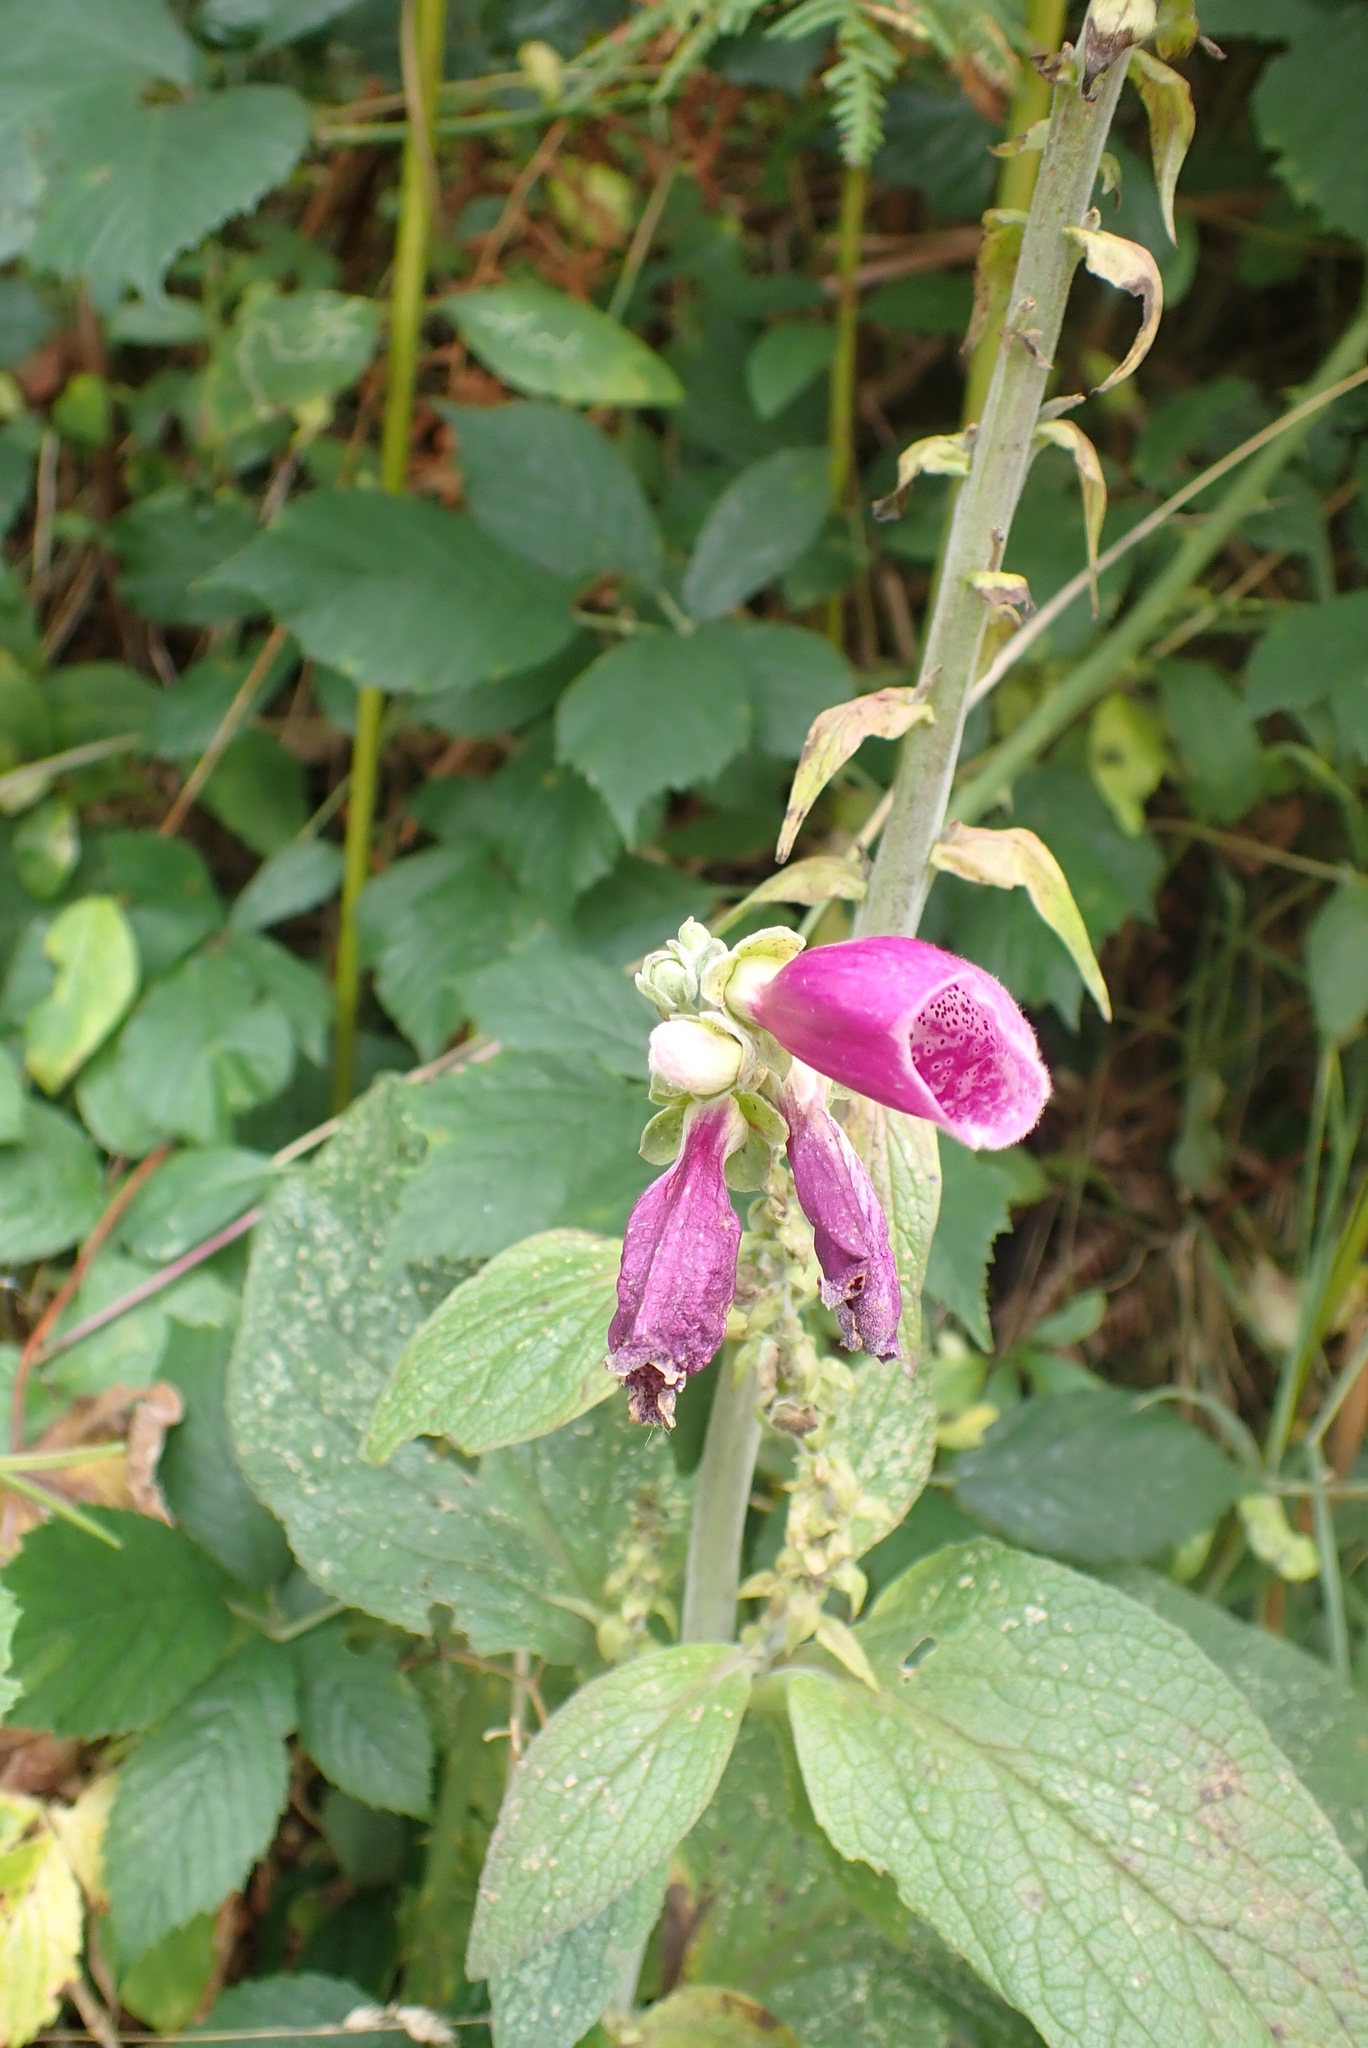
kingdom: Plantae
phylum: Tracheophyta
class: Magnoliopsida
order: Lamiales
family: Plantaginaceae
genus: Digitalis
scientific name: Digitalis purpurea
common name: Foxglove
